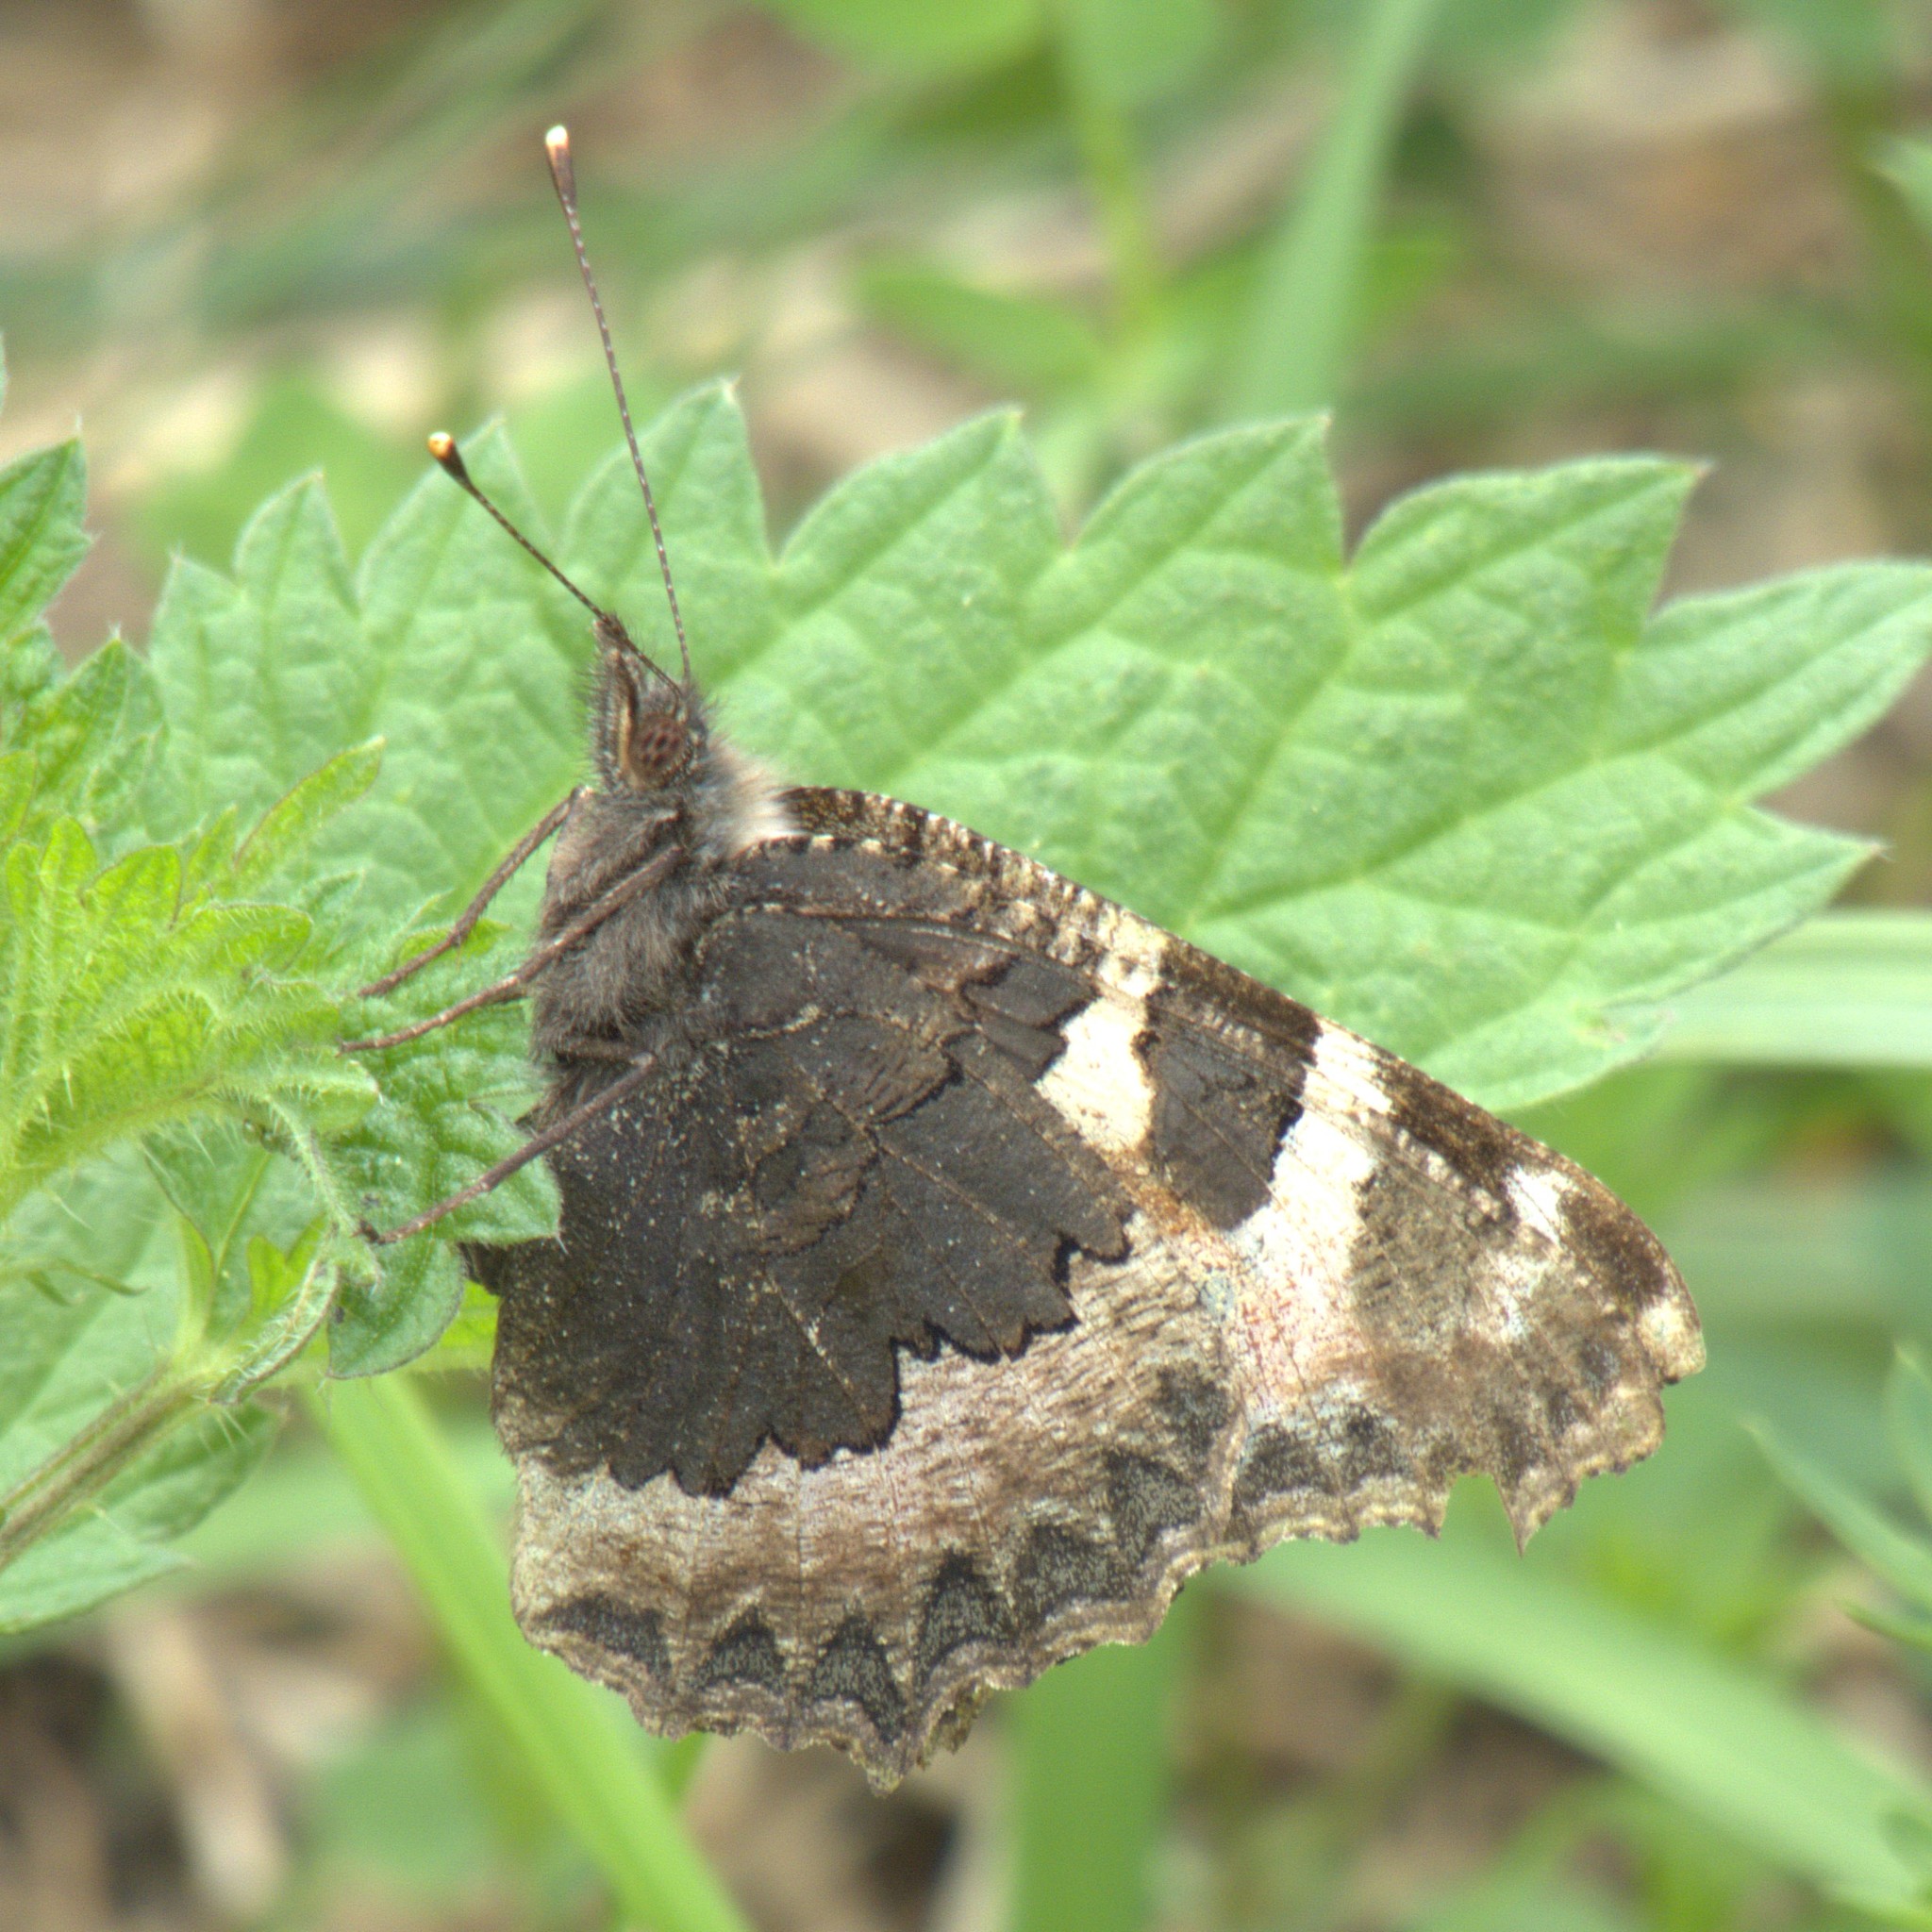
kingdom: Animalia
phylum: Arthropoda
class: Insecta
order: Lepidoptera
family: Nymphalidae
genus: Aglais
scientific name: Aglais urticae
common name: Small tortoiseshell
